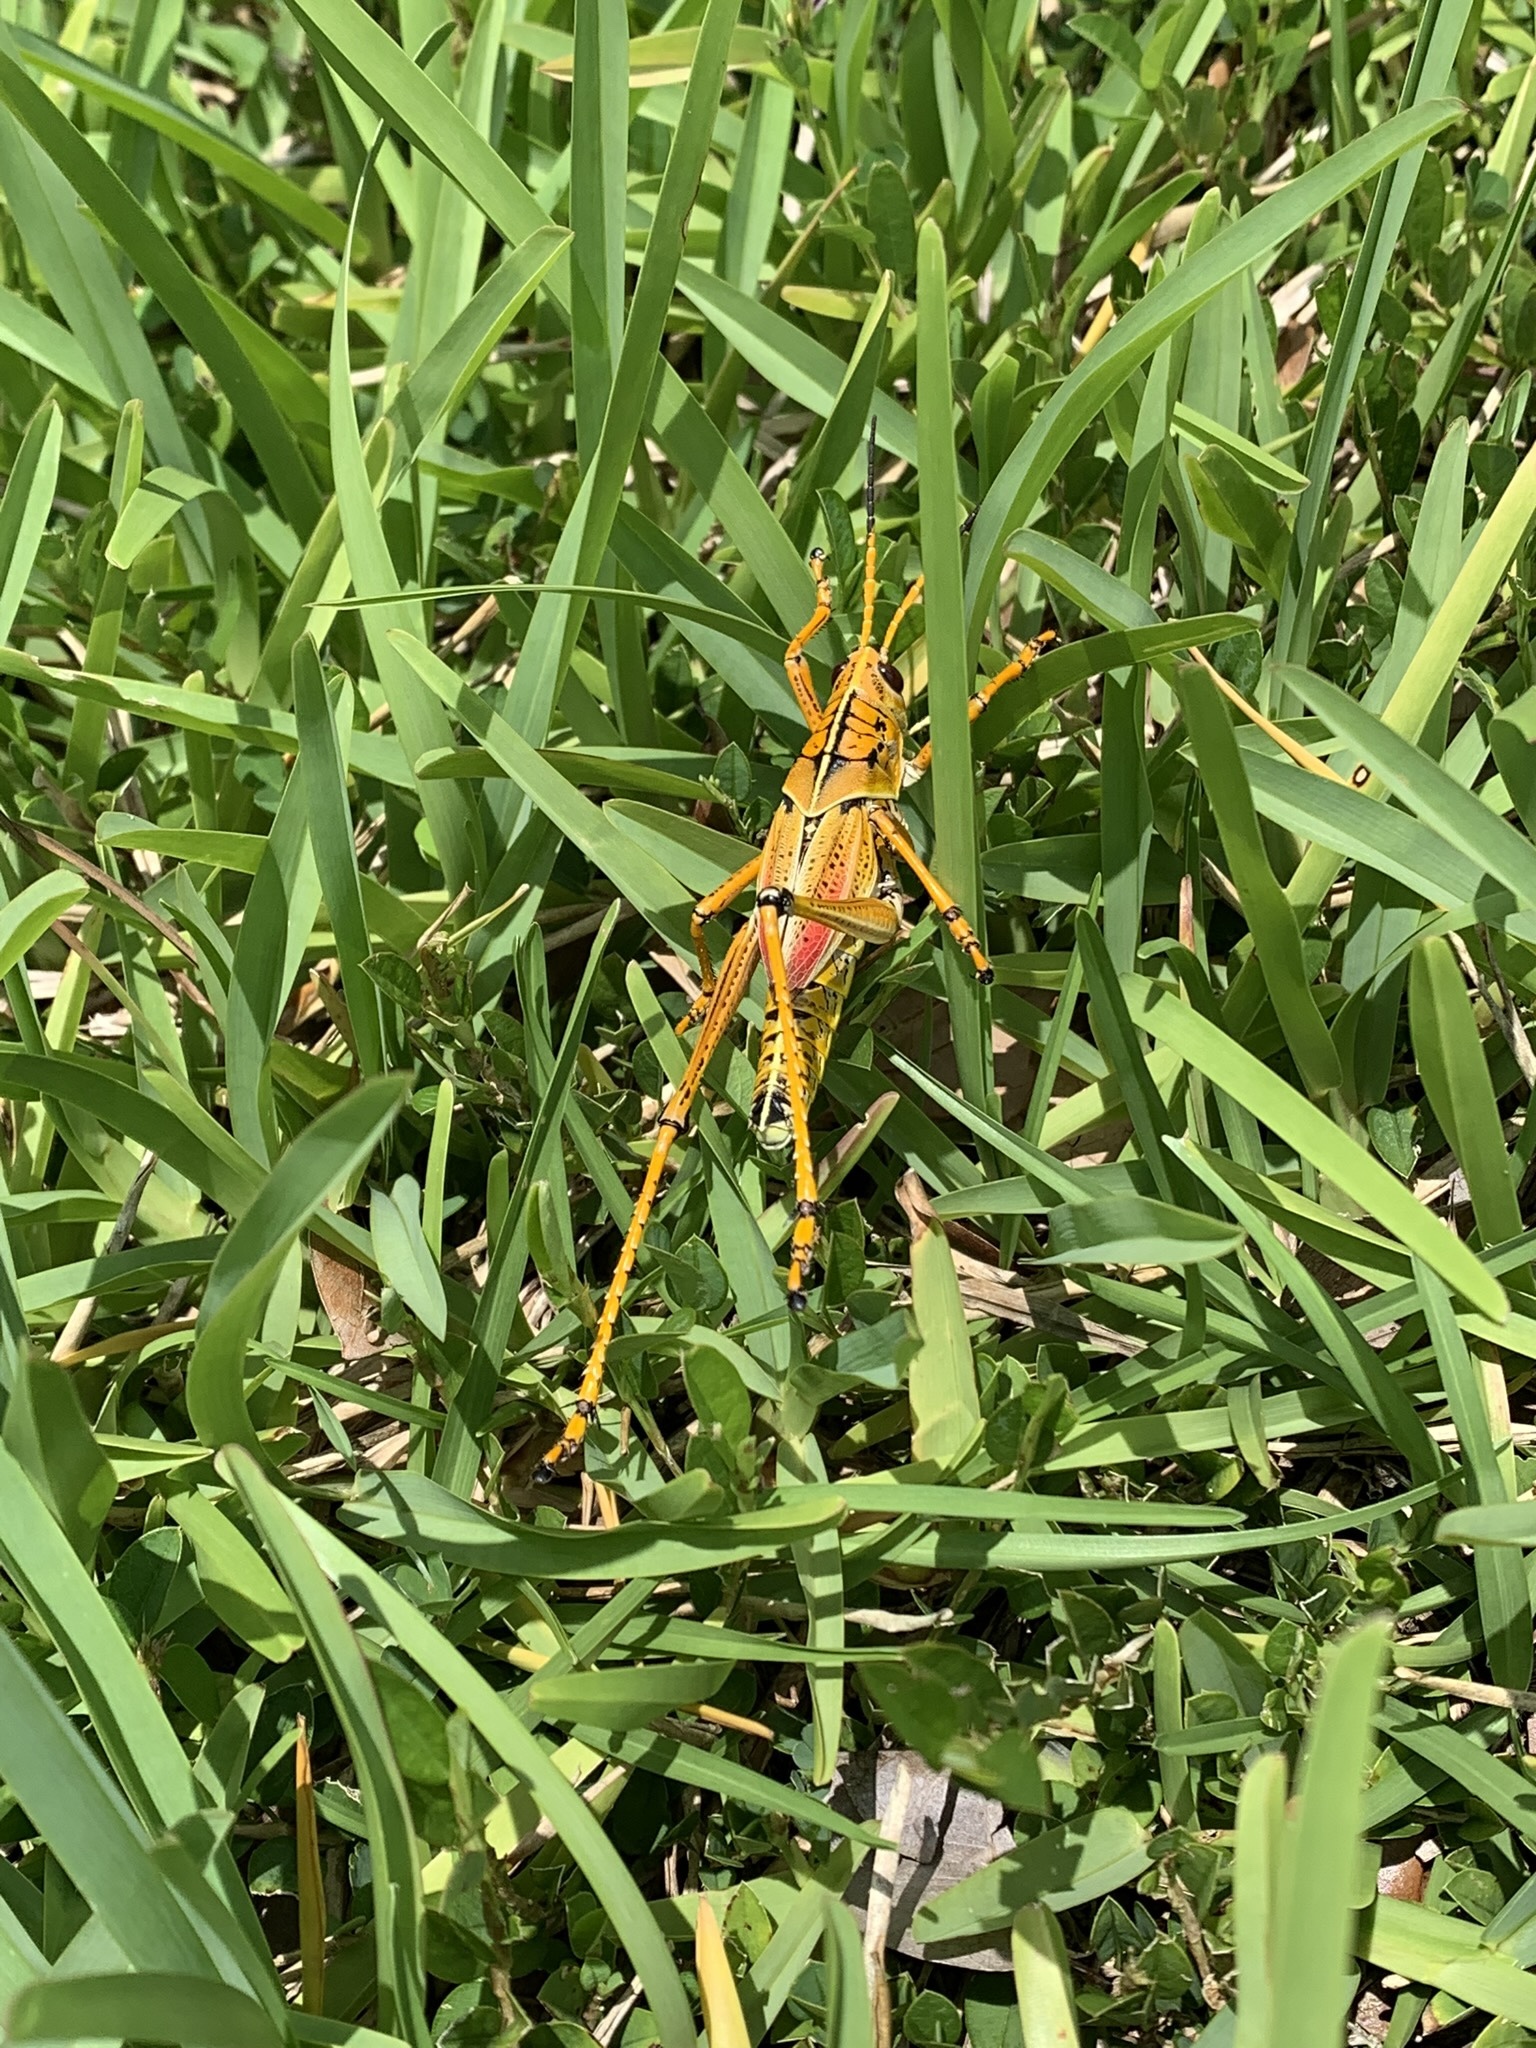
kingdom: Animalia
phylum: Arthropoda
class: Insecta
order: Orthoptera
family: Romaleidae
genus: Romalea
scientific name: Romalea microptera
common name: Eastern lubber grasshopper
